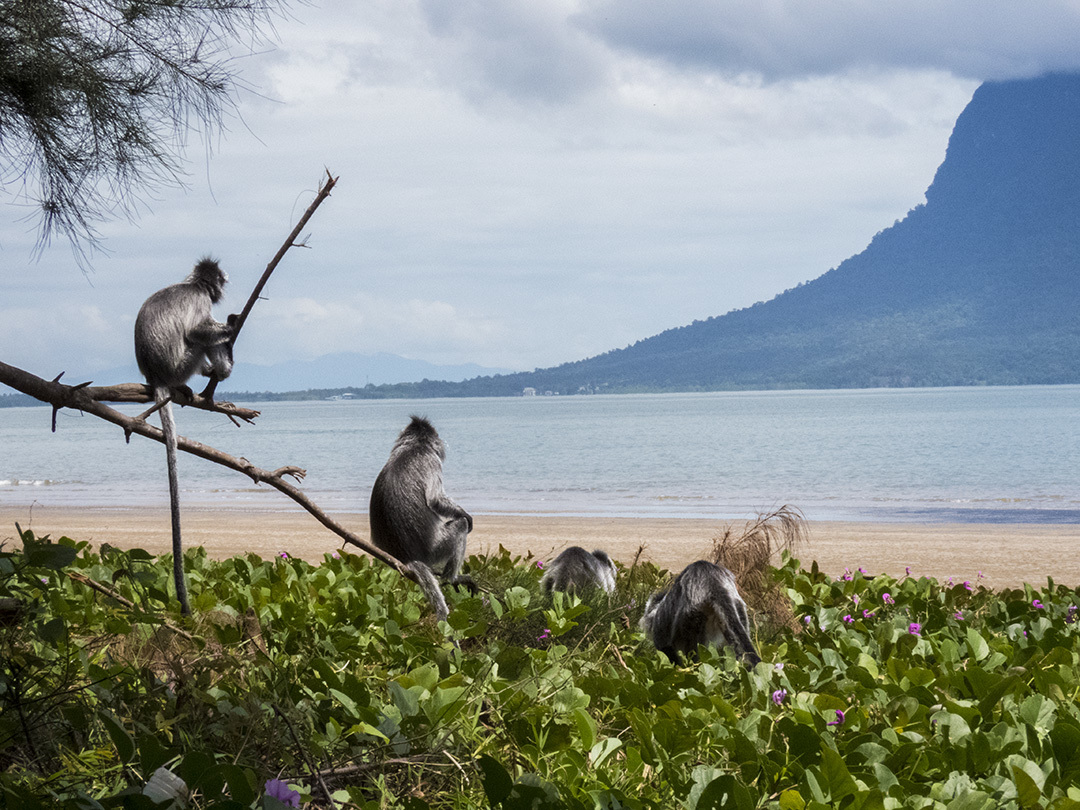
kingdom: Animalia
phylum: Chordata
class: Mammalia
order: Primates
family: Cercopithecidae
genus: Trachypithecus
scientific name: Trachypithecus cristatus
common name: Silvery lutung
